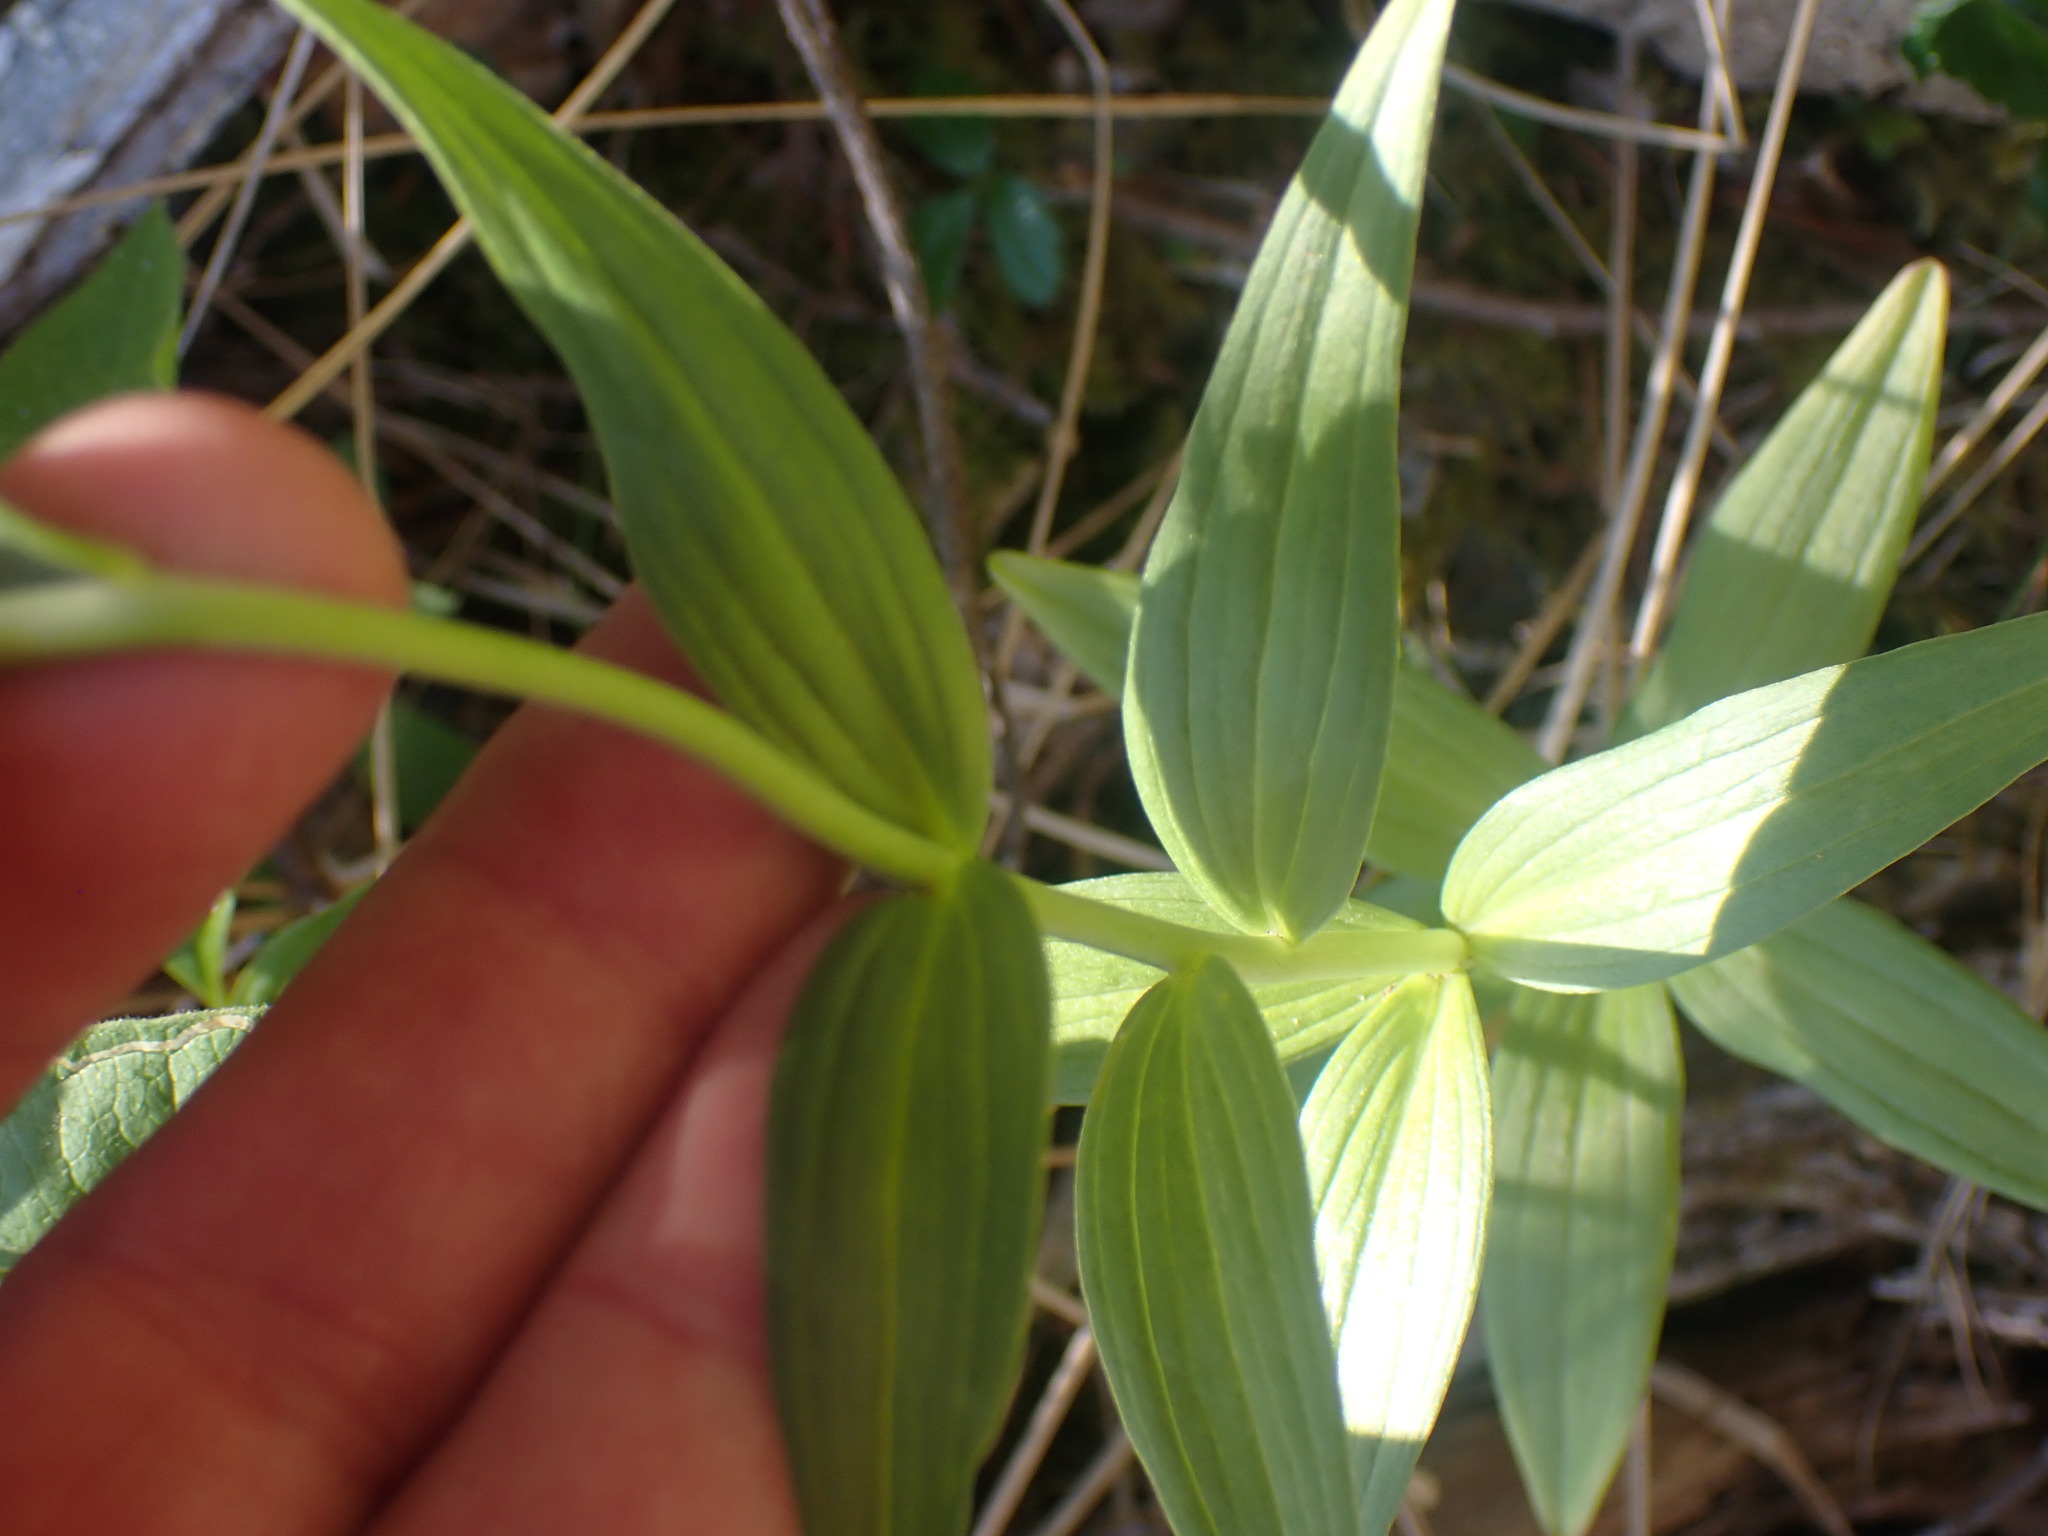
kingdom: Plantae
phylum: Tracheophyta
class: Liliopsida
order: Liliales
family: Liliaceae
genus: Fritillaria
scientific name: Fritillaria camschatcensis
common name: Kamchatka fritillary
